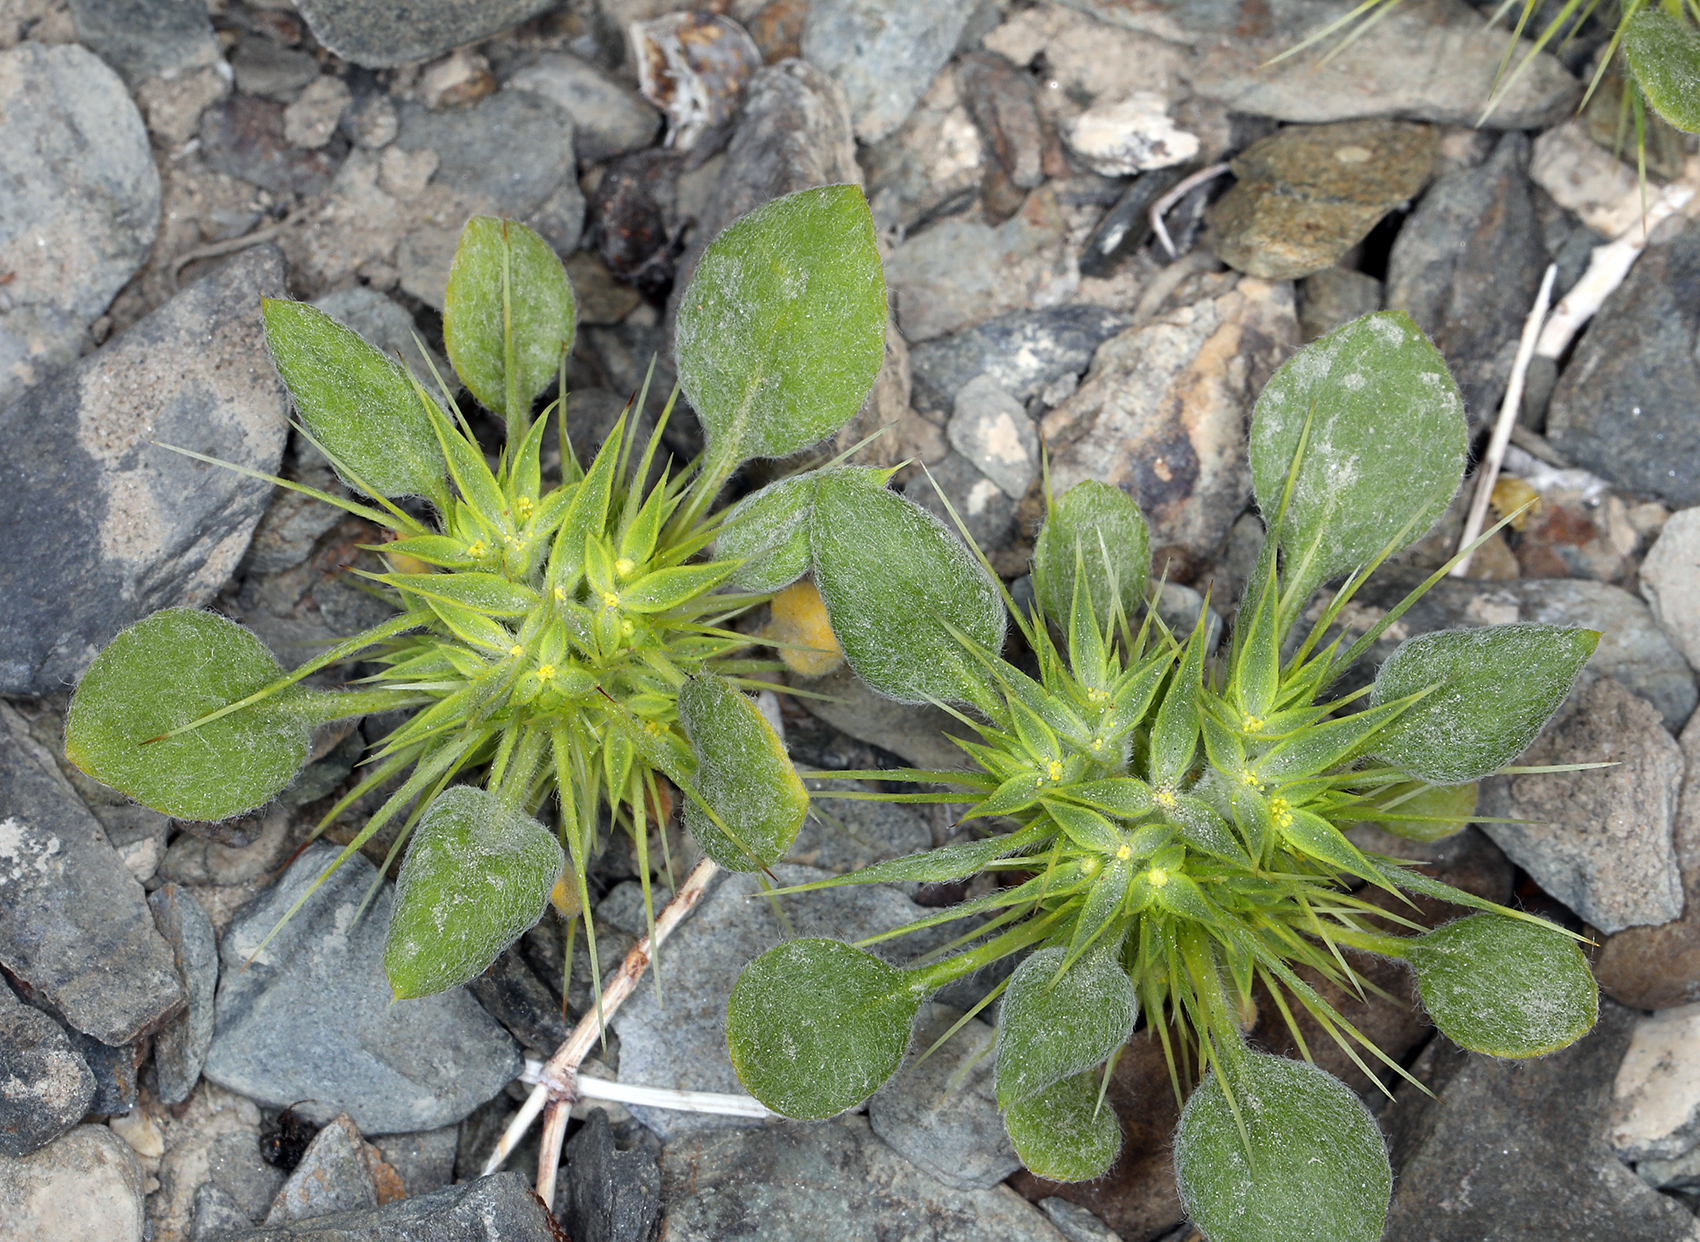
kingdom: Plantae
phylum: Tracheophyta
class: Magnoliopsida
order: Caryophyllales
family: Polygonaceae
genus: Chorizanthe
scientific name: Chorizanthe rigida
